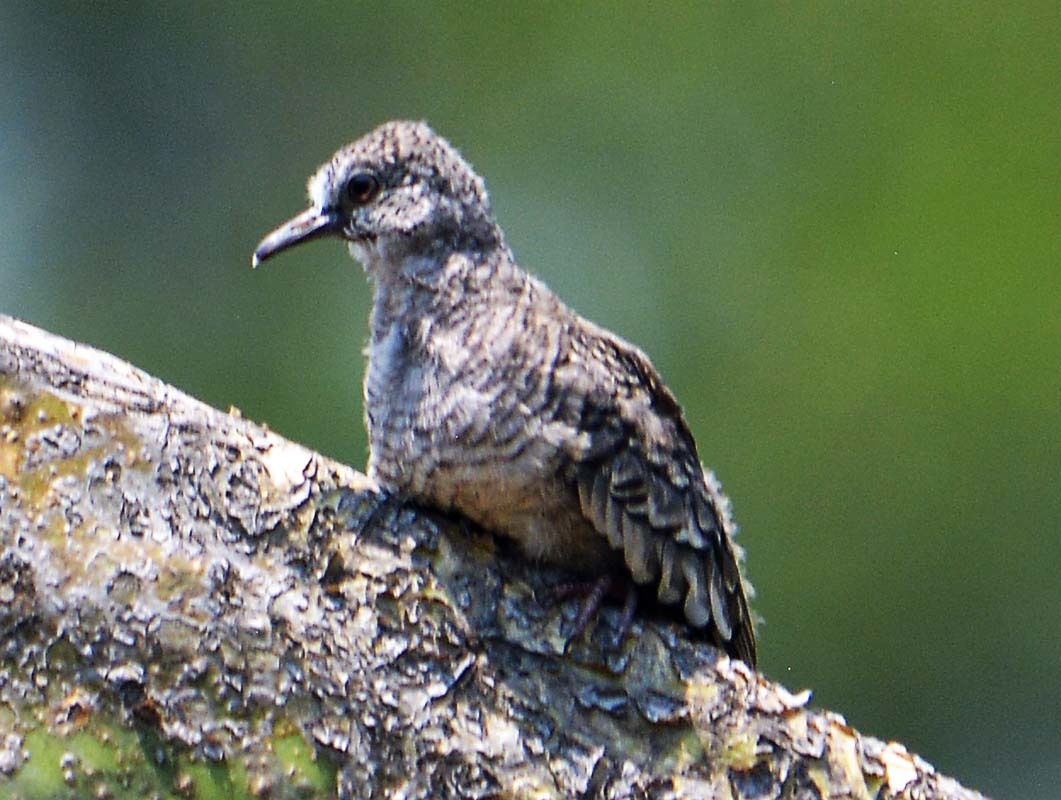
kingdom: Animalia
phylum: Chordata
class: Aves
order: Columbiformes
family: Columbidae
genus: Columbina
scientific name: Columbina inca
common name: Inca dove
